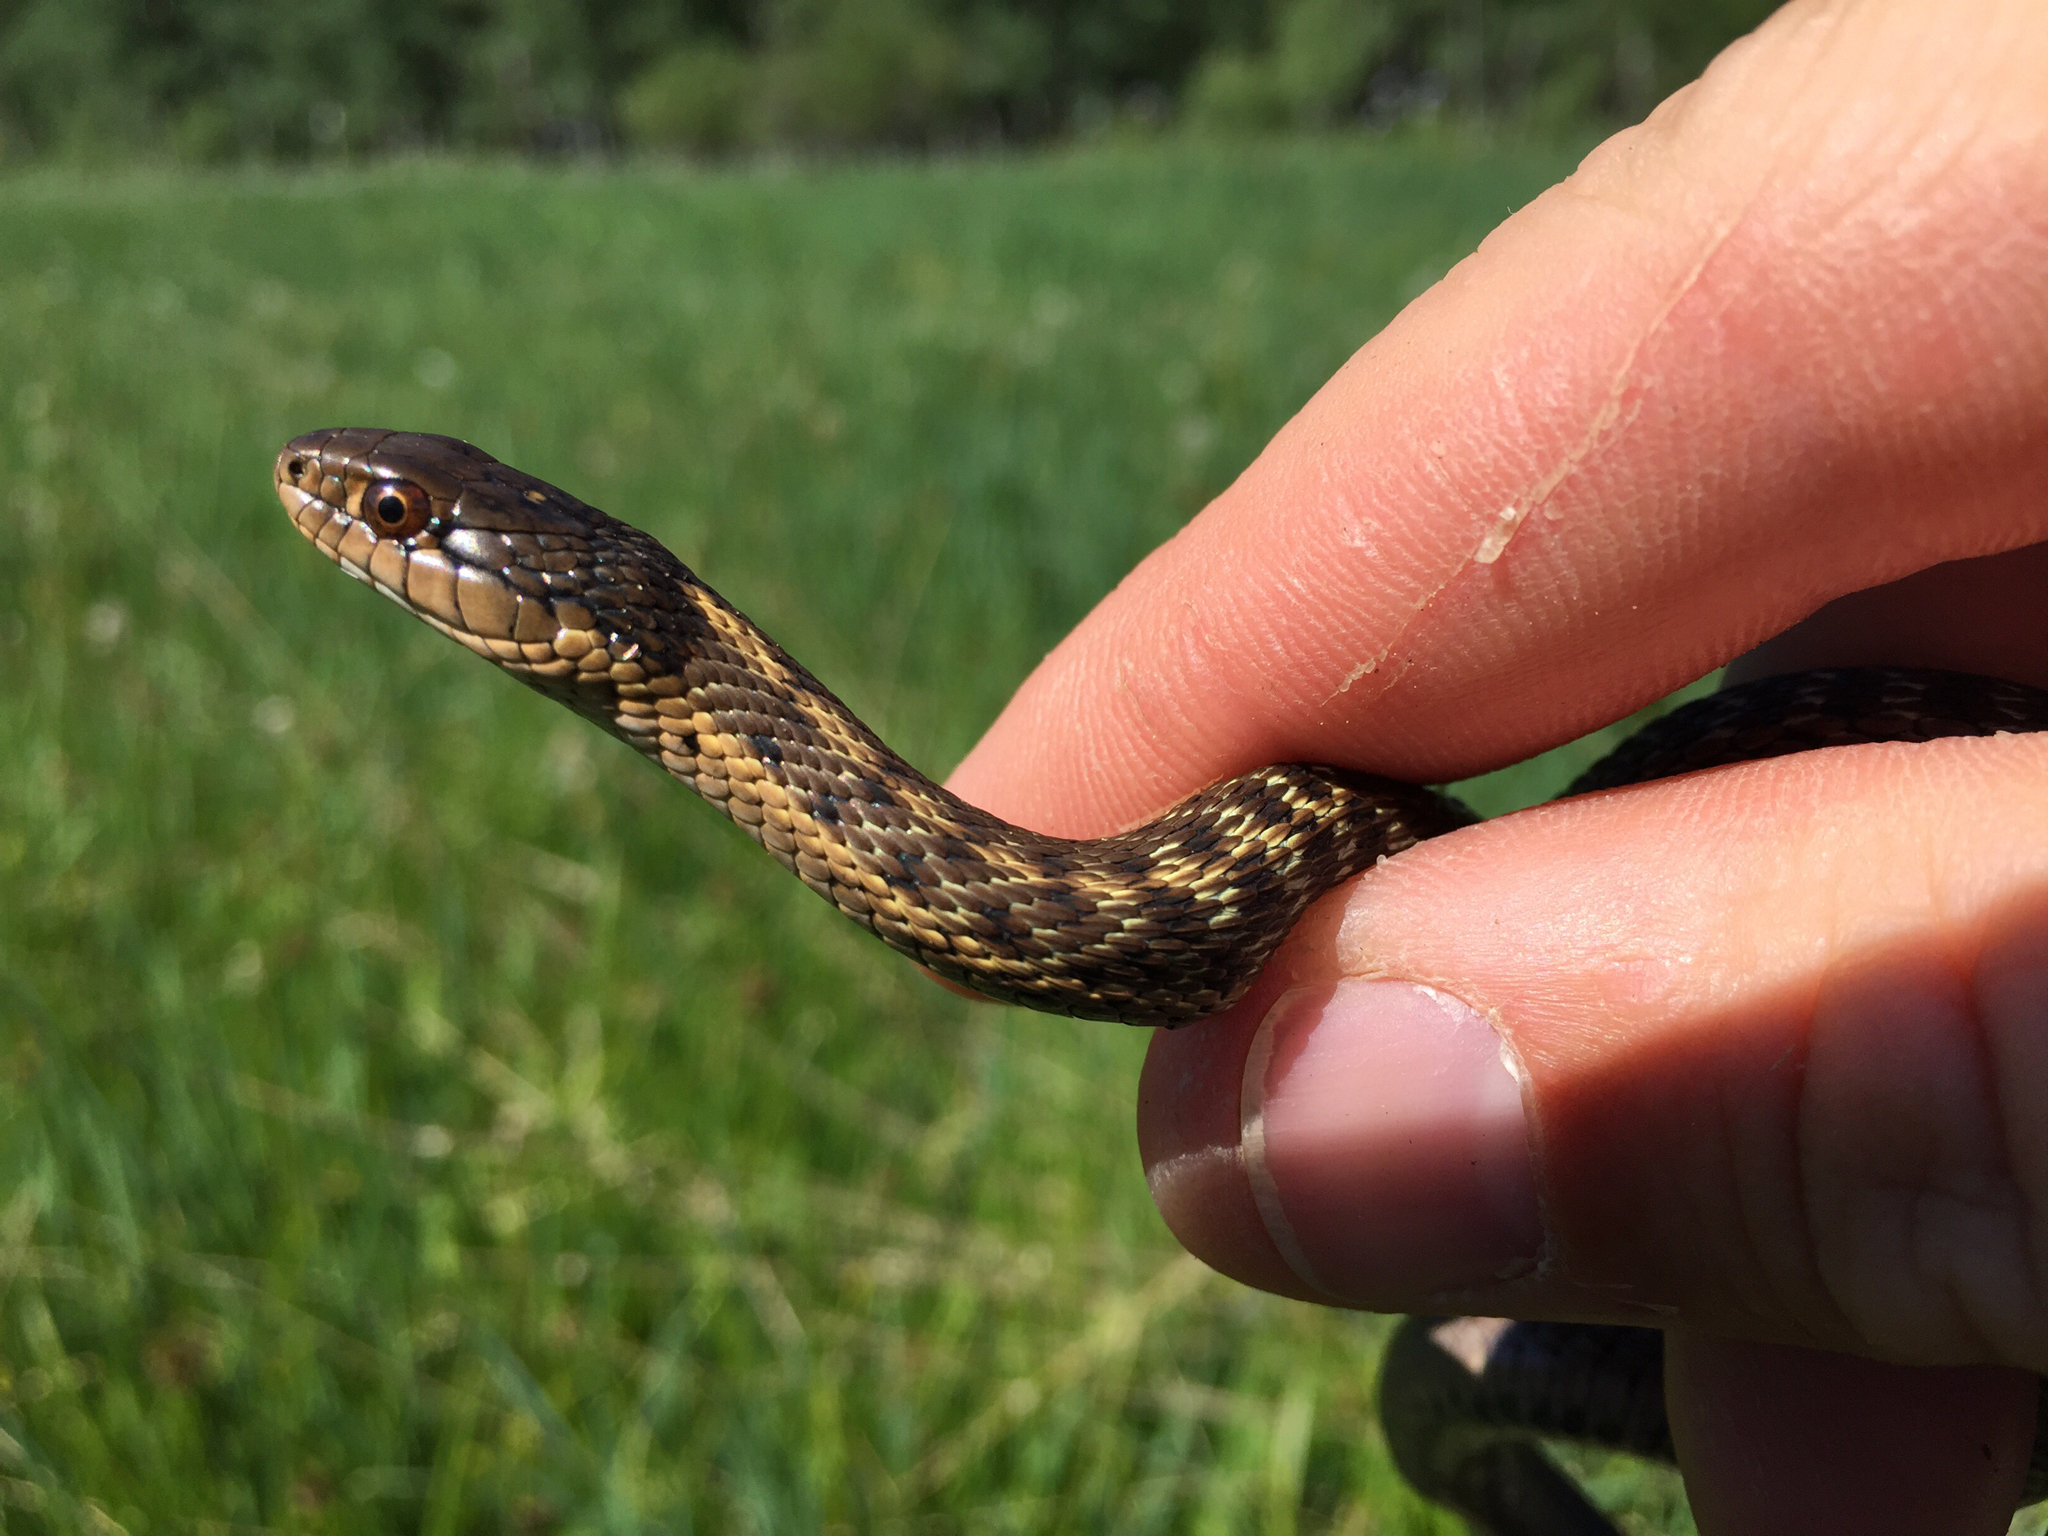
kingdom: Animalia
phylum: Chordata
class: Squamata
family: Colubridae
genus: Thamnophis
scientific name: Thamnophis elegans
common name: Western terrestrial garter snake
